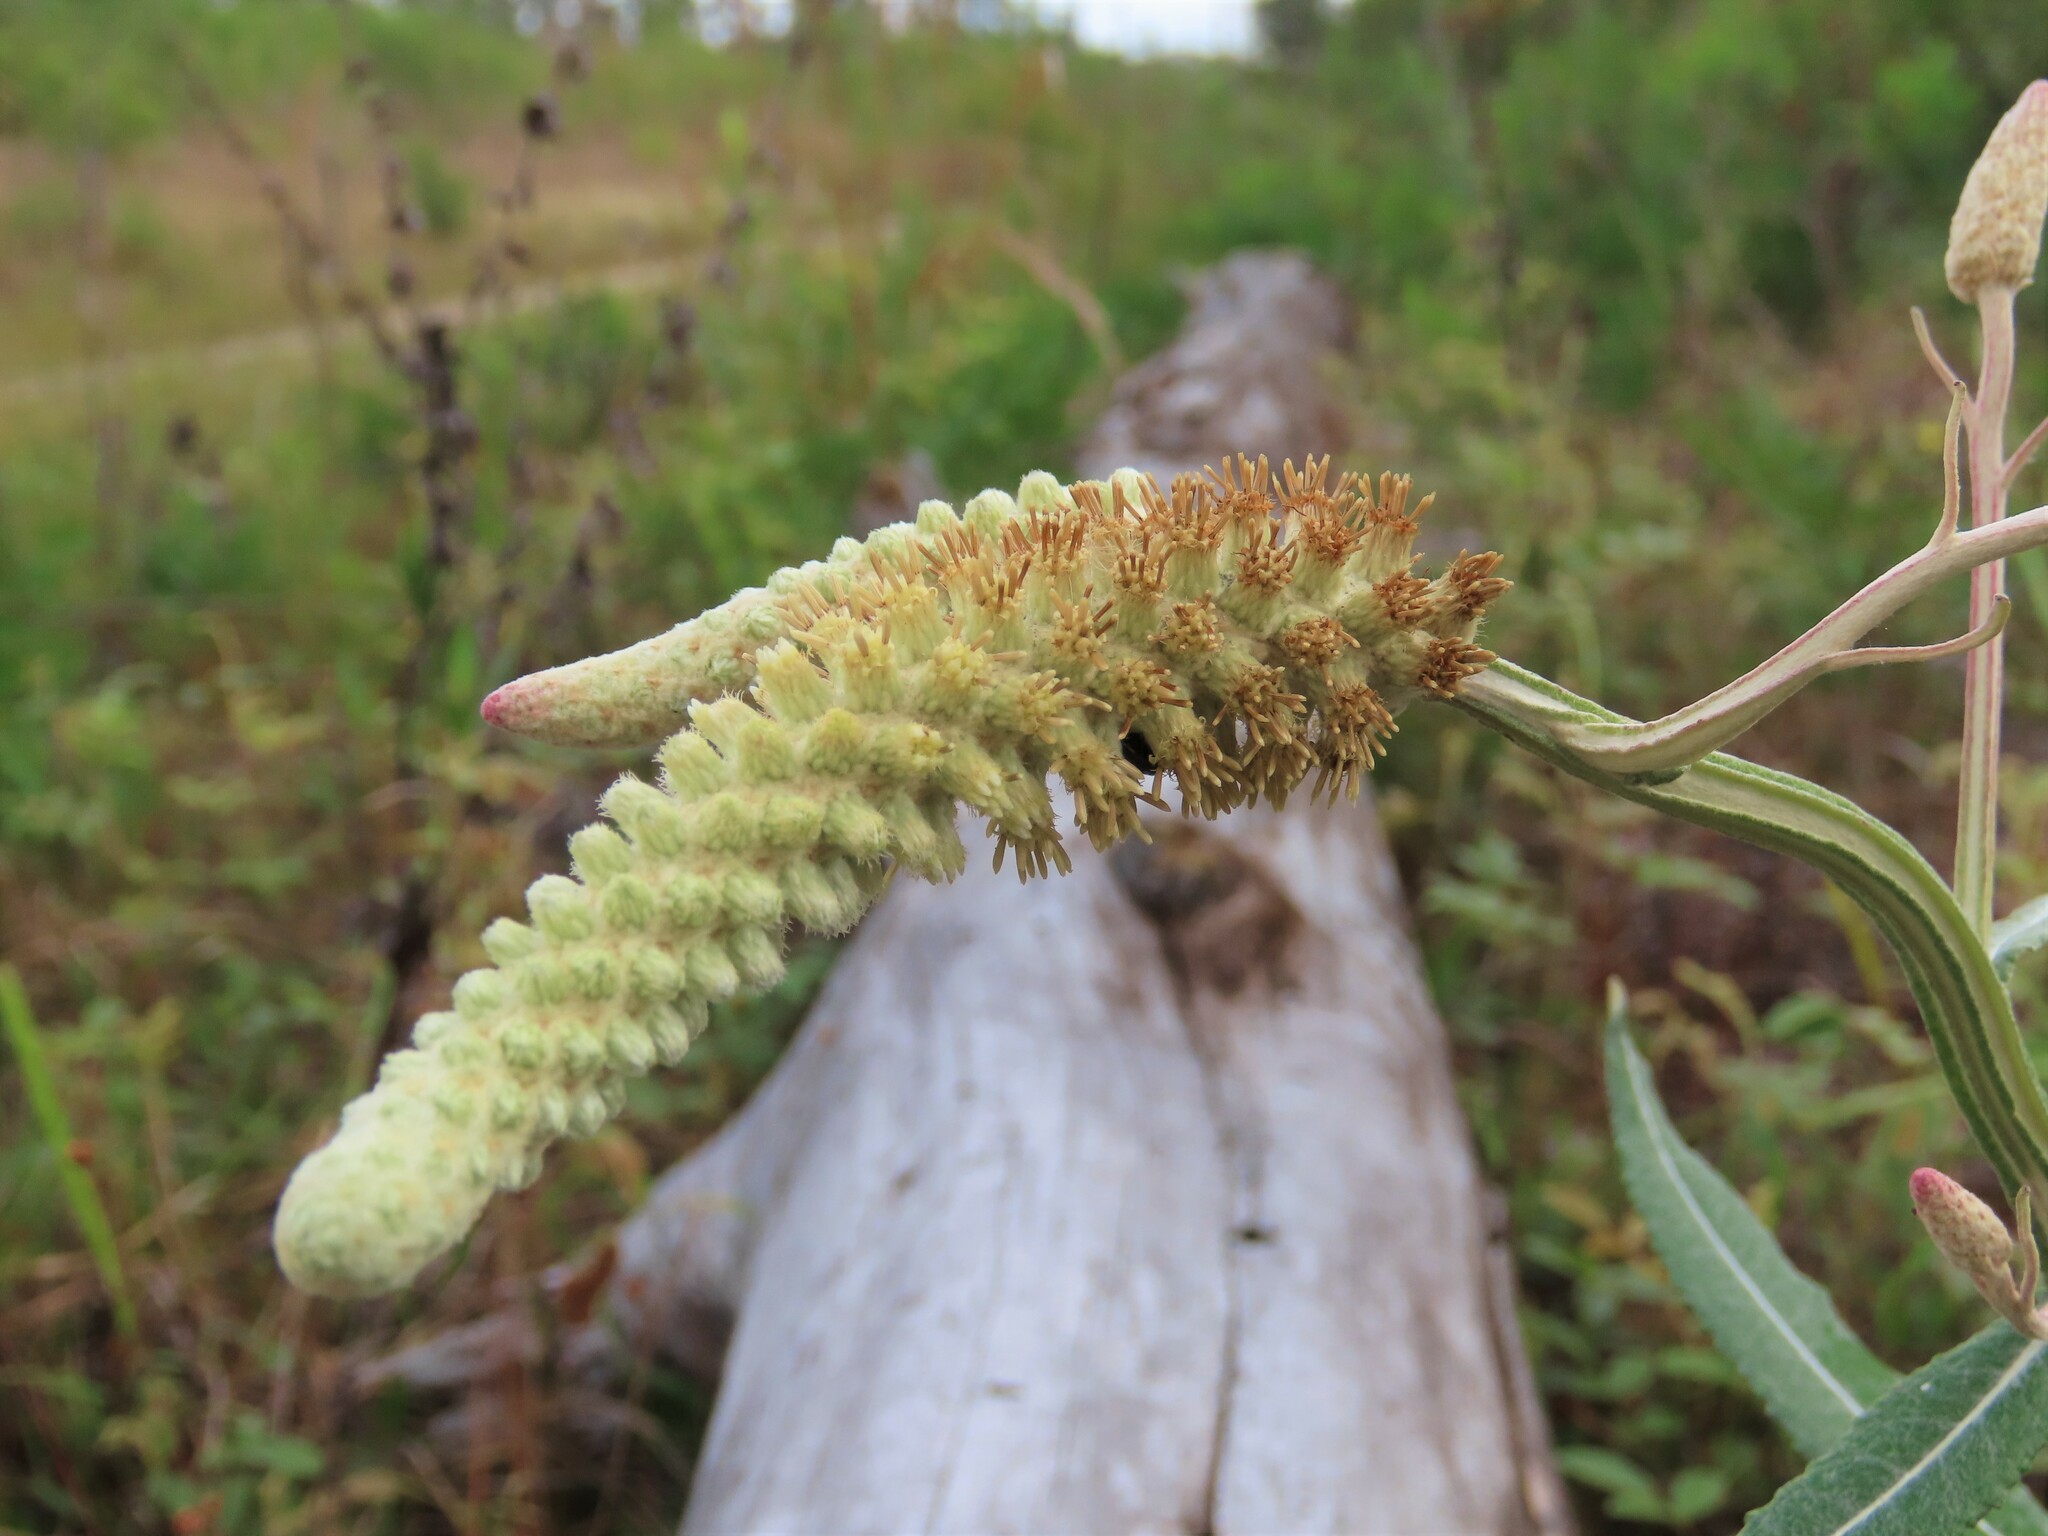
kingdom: Plantae
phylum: Tracheophyta
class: Magnoliopsida
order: Asterales
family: Asteraceae
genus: Pterocaulon
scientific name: Pterocaulon pycnostachyum
